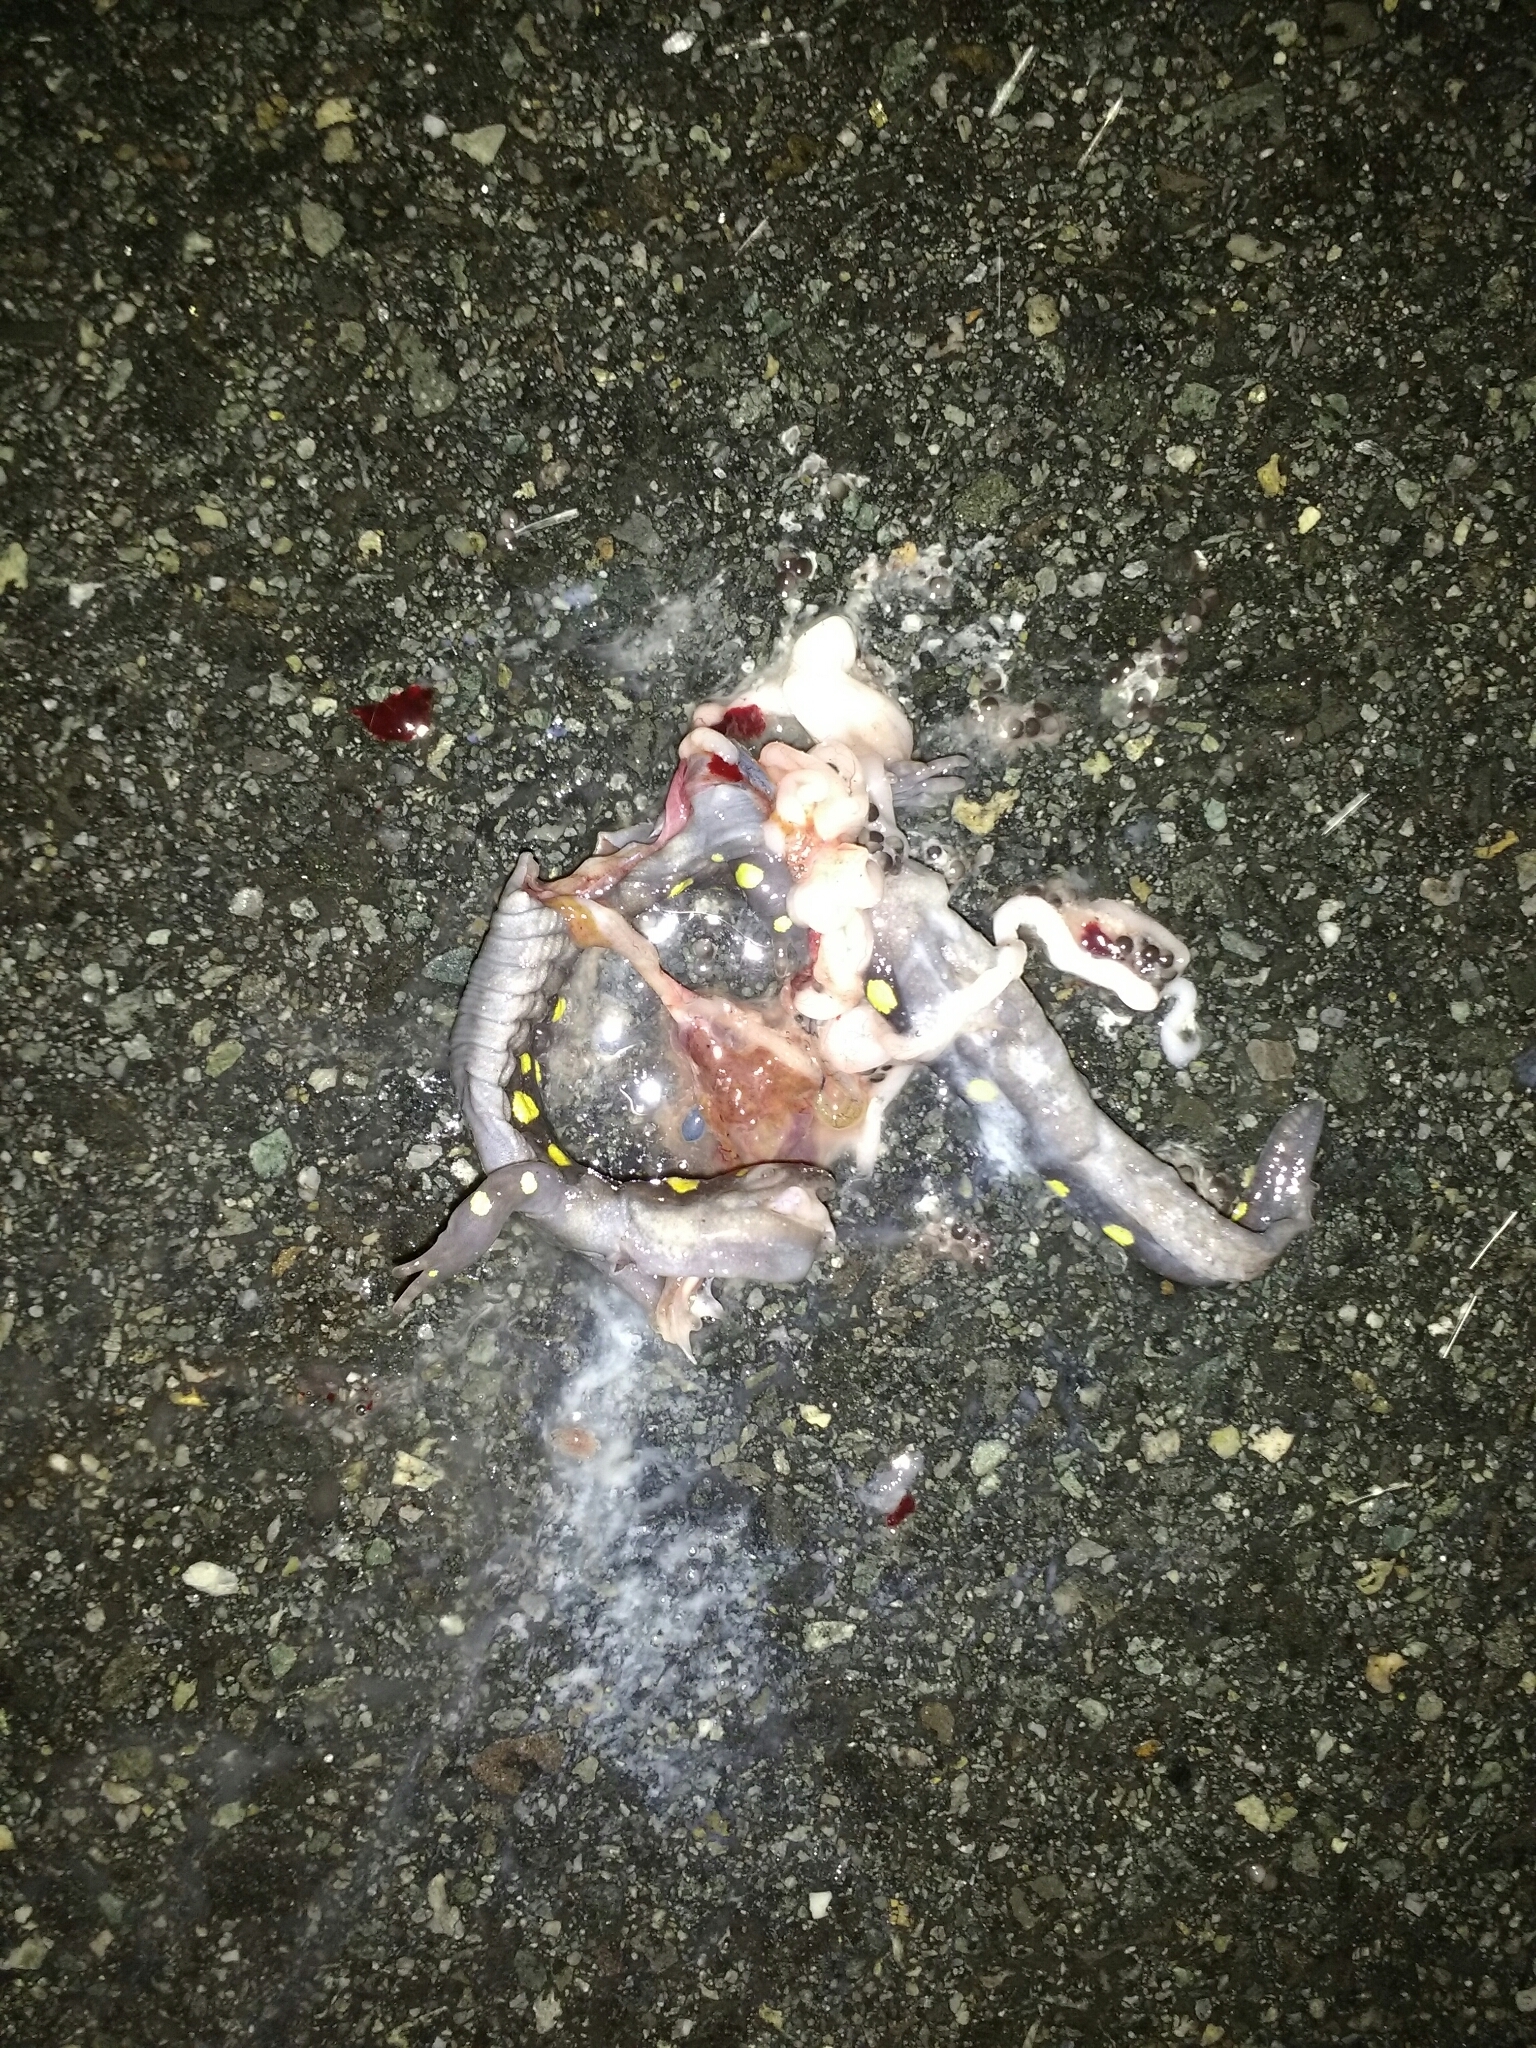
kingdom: Animalia
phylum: Chordata
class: Amphibia
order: Caudata
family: Ambystomatidae
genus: Ambystoma
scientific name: Ambystoma maculatum
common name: Spotted salamander
